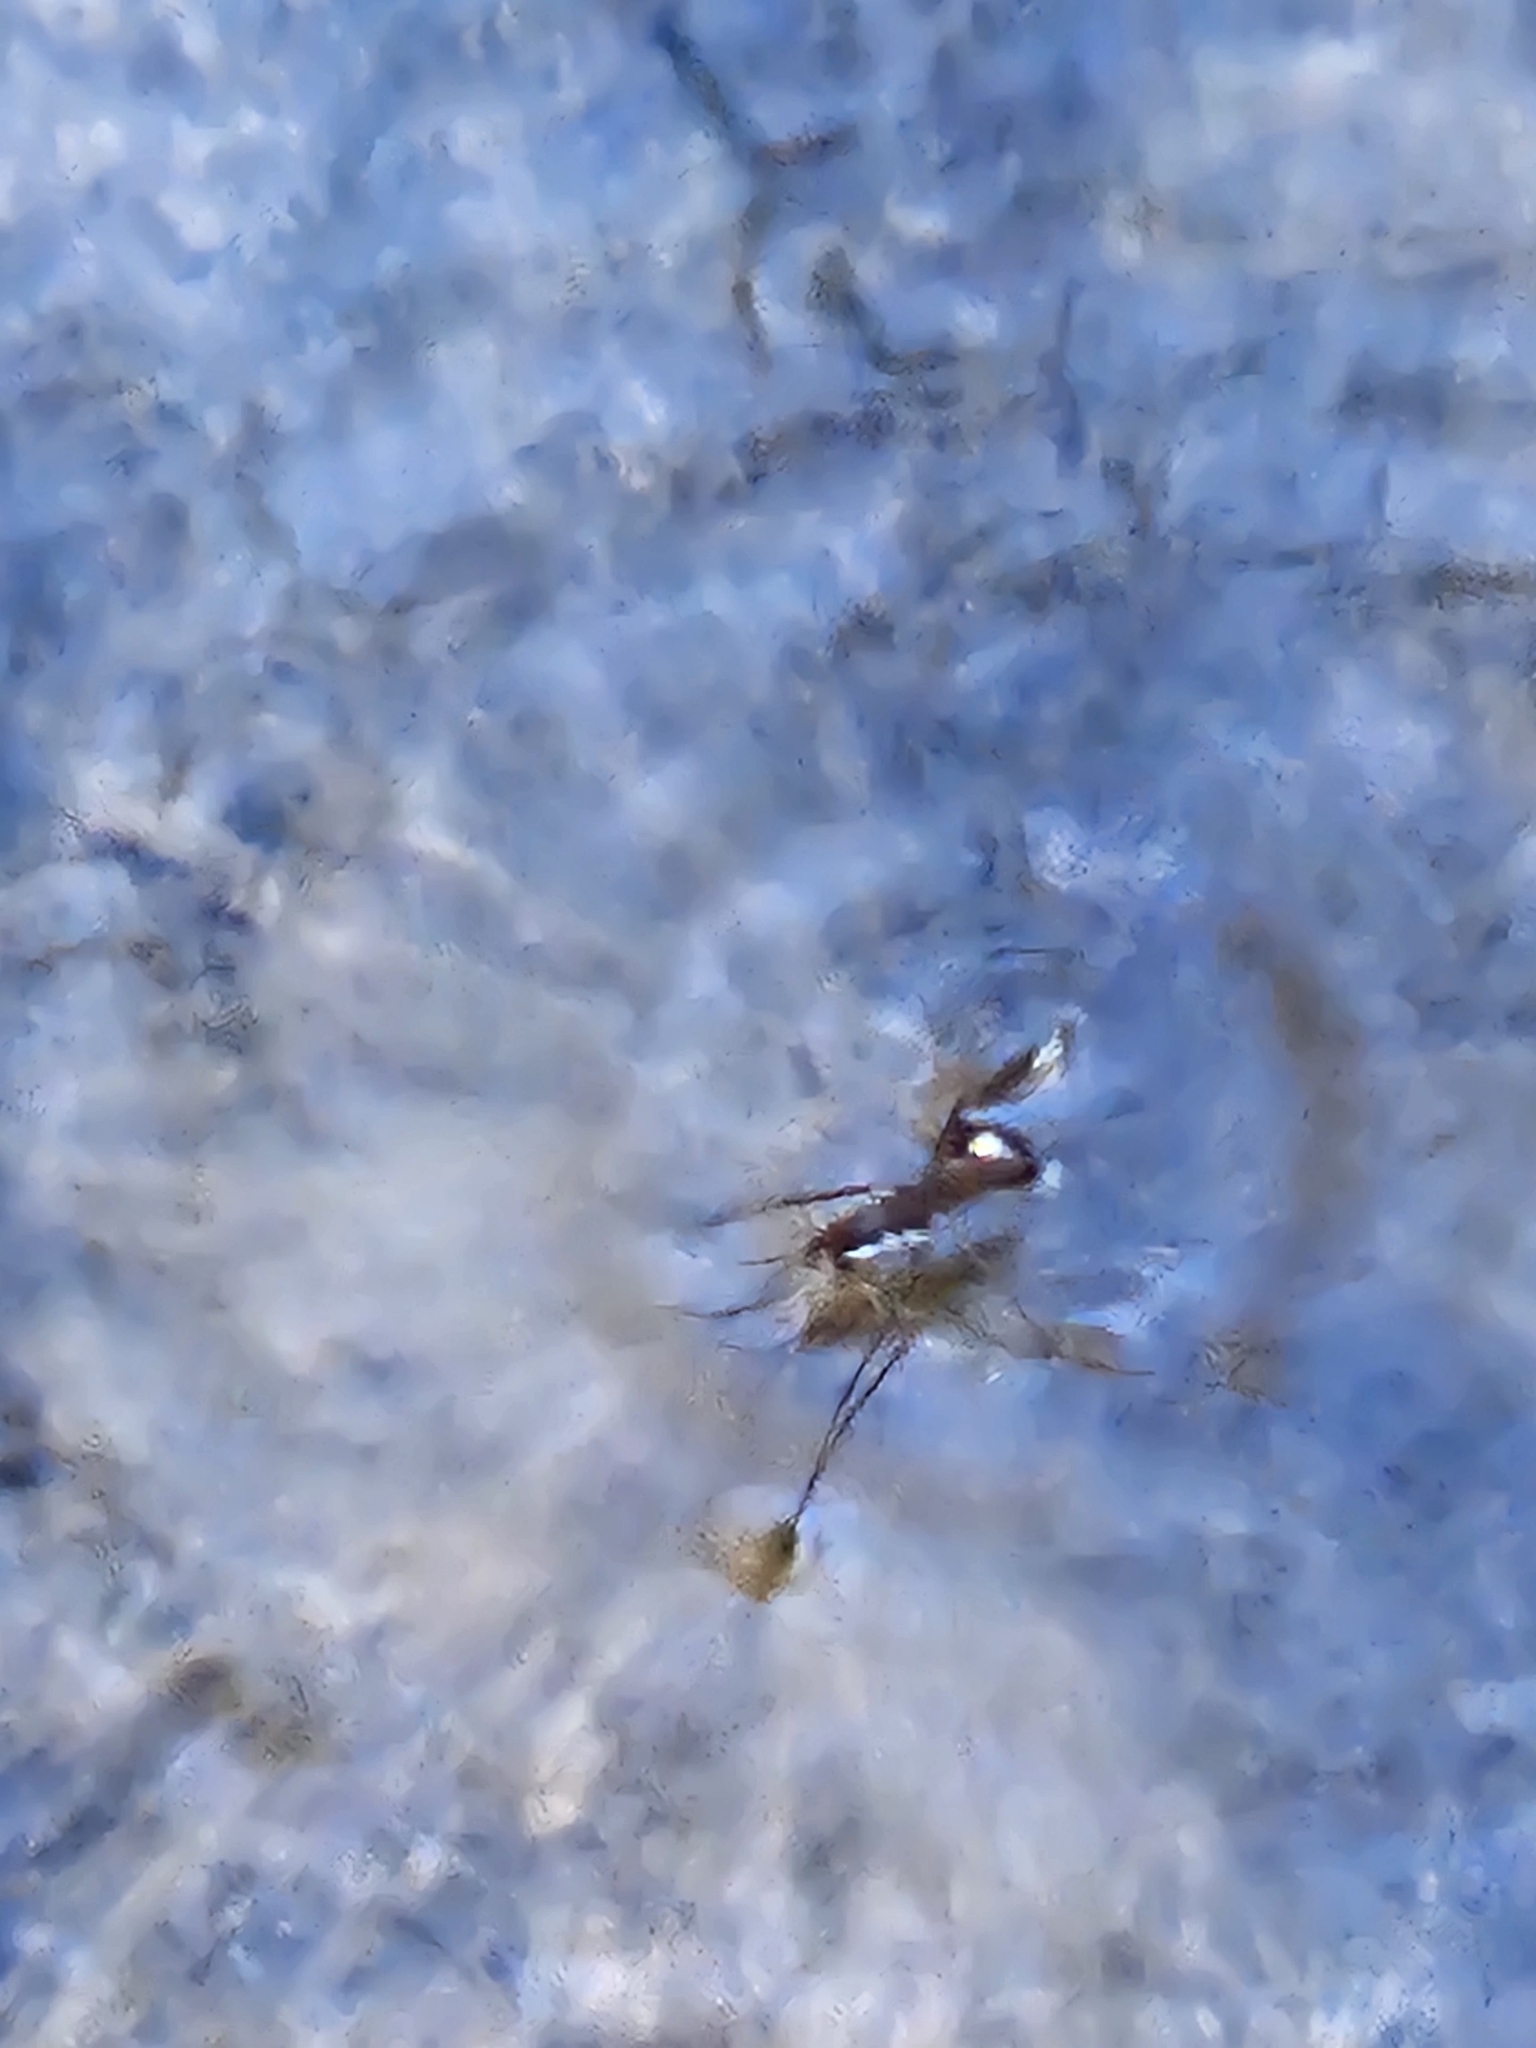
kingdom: Animalia
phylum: Arthropoda
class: Insecta
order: Hemiptera
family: Gerridae
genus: Aquarius
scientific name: Aquarius remigis
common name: Common water strider
